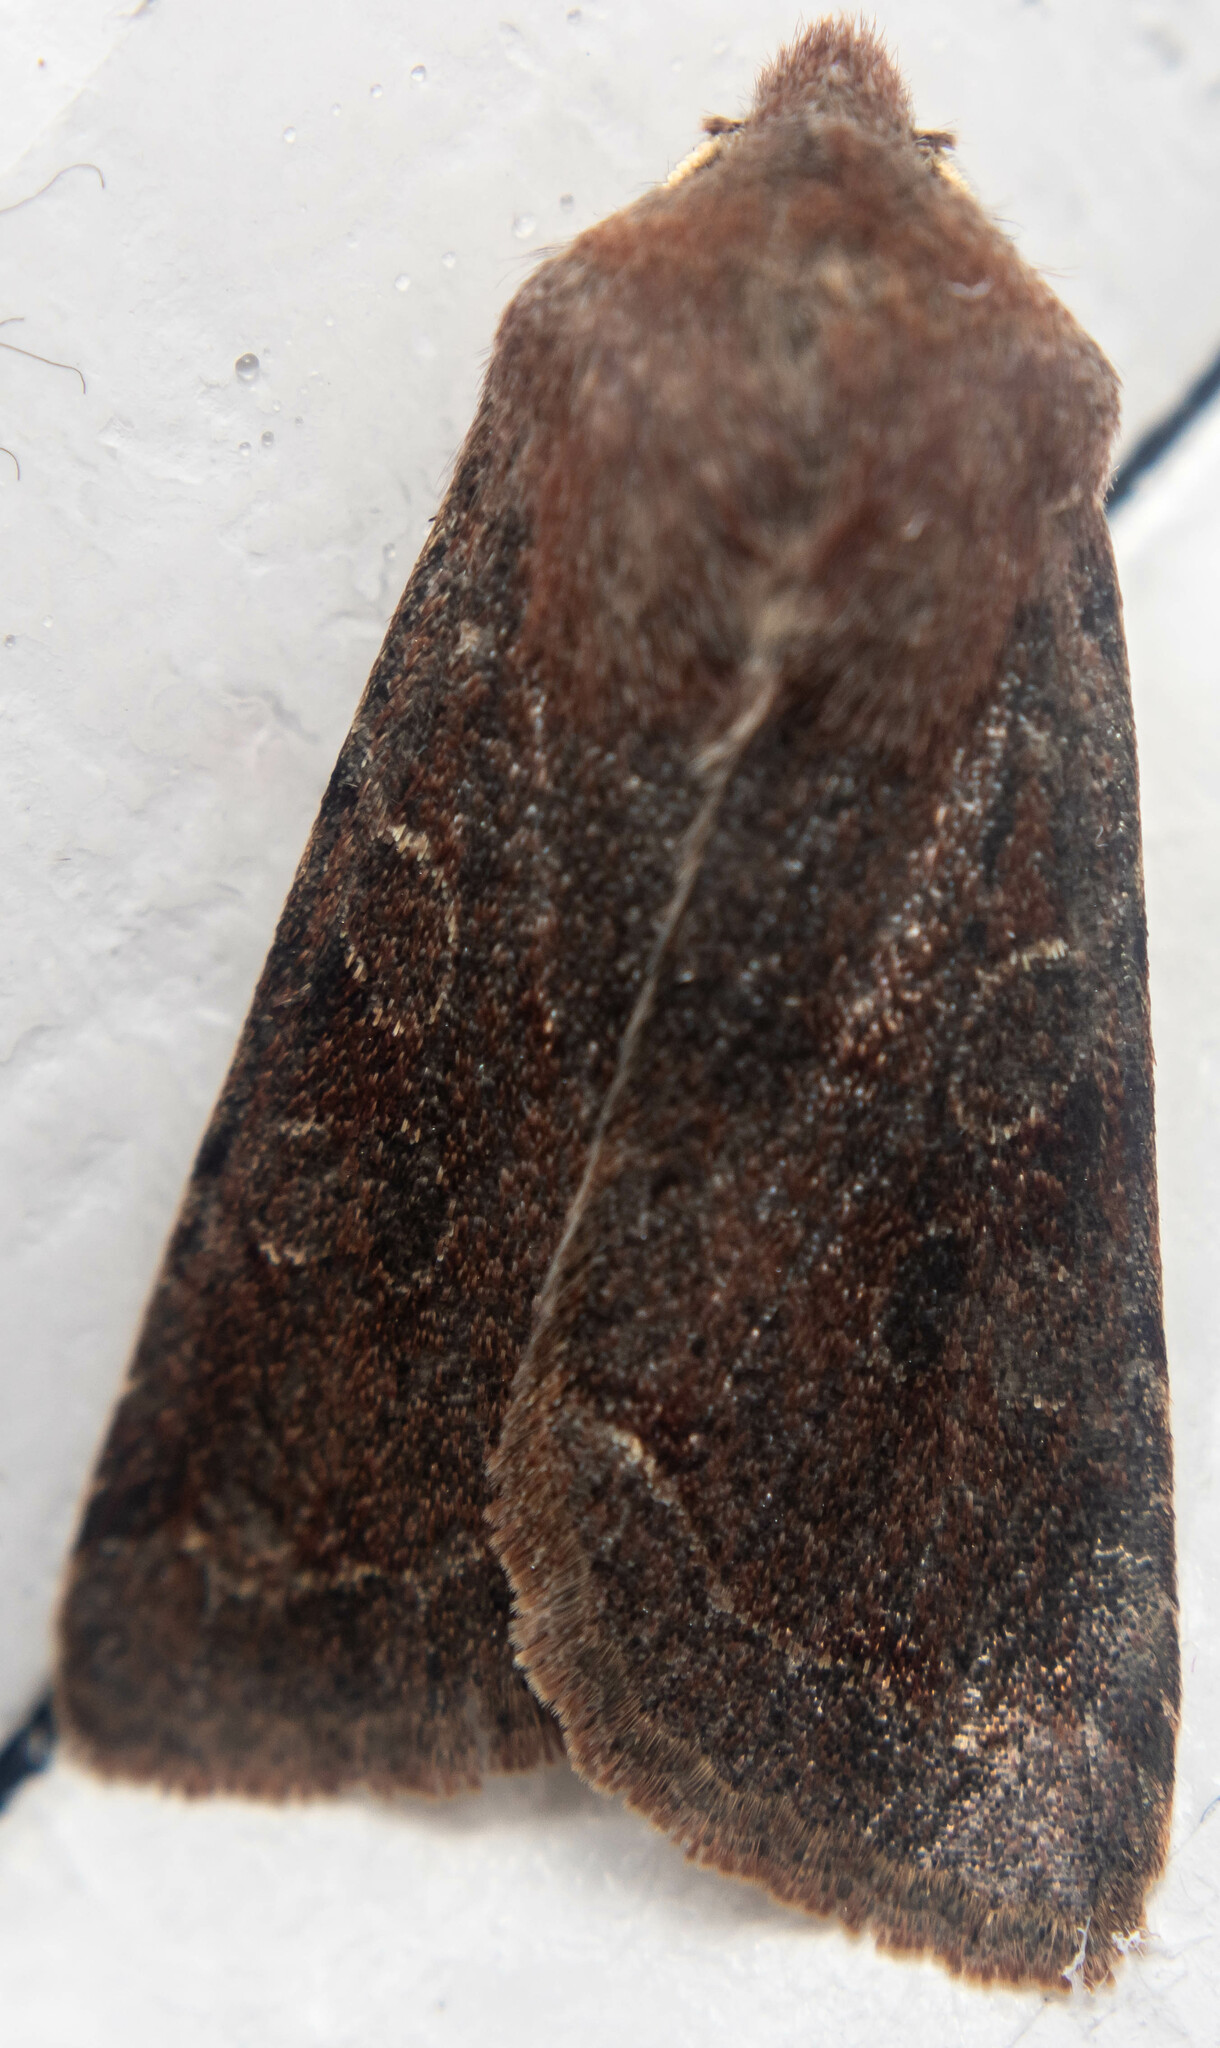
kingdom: Animalia
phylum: Arthropoda
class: Insecta
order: Lepidoptera
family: Noctuidae
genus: Orthosia
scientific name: Orthosia incerta
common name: Clouded drab
